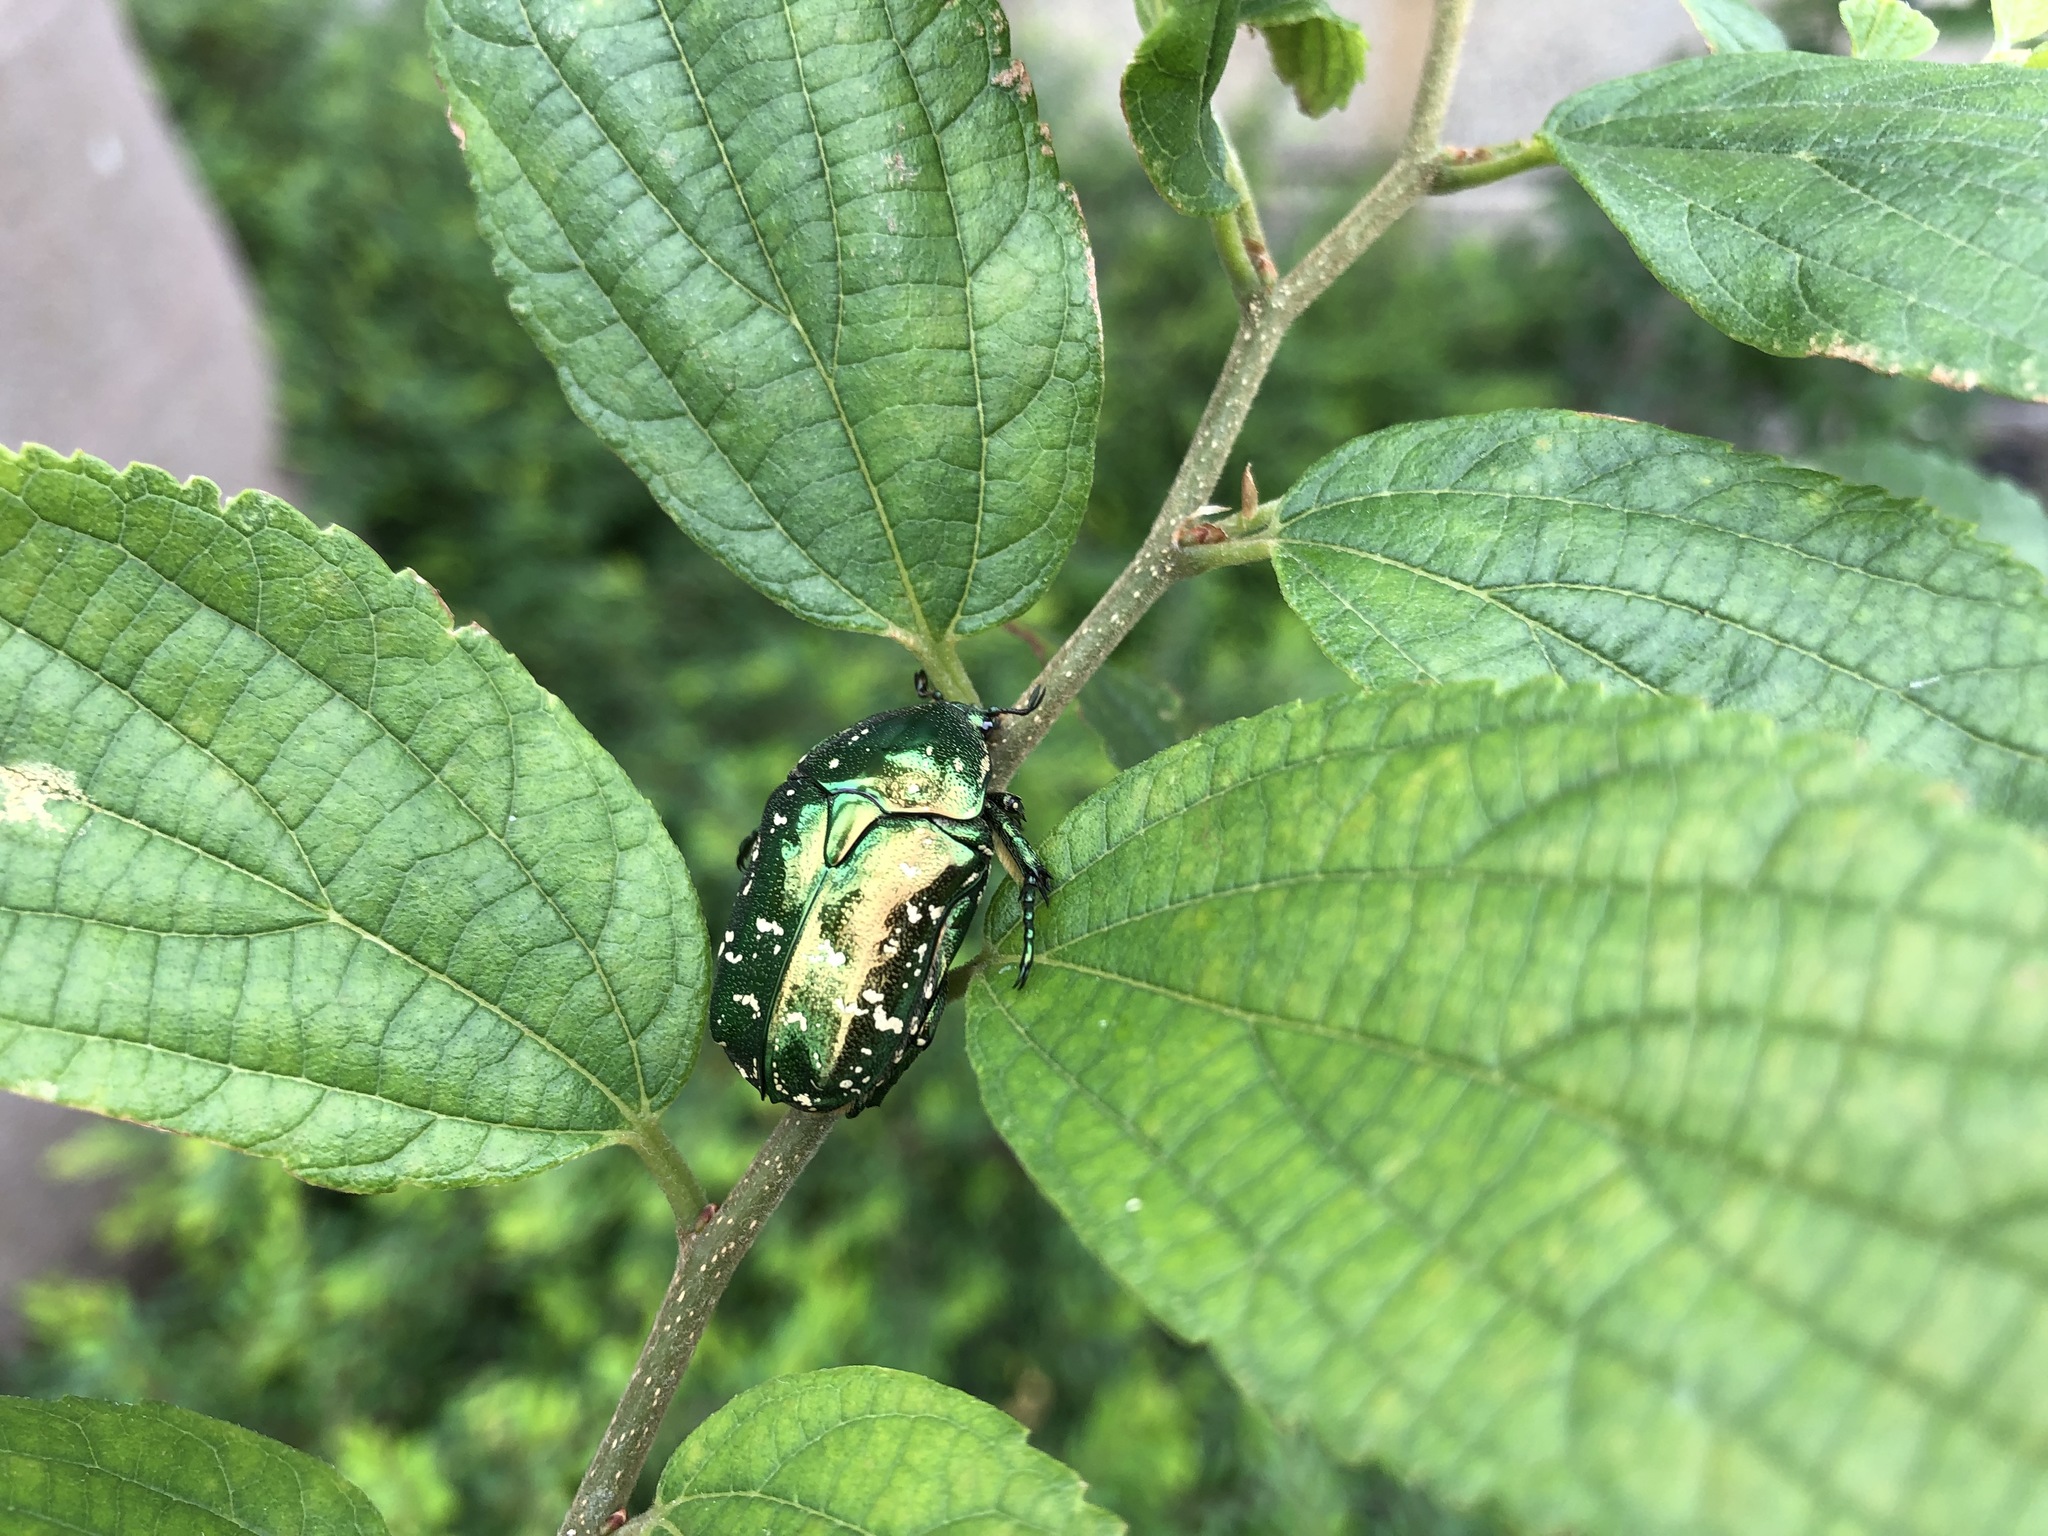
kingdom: Animalia
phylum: Arthropoda
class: Insecta
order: Coleoptera
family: Scarabaeidae
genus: Protaetia
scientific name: Protaetia orientalis
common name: Oriental flower beetle
